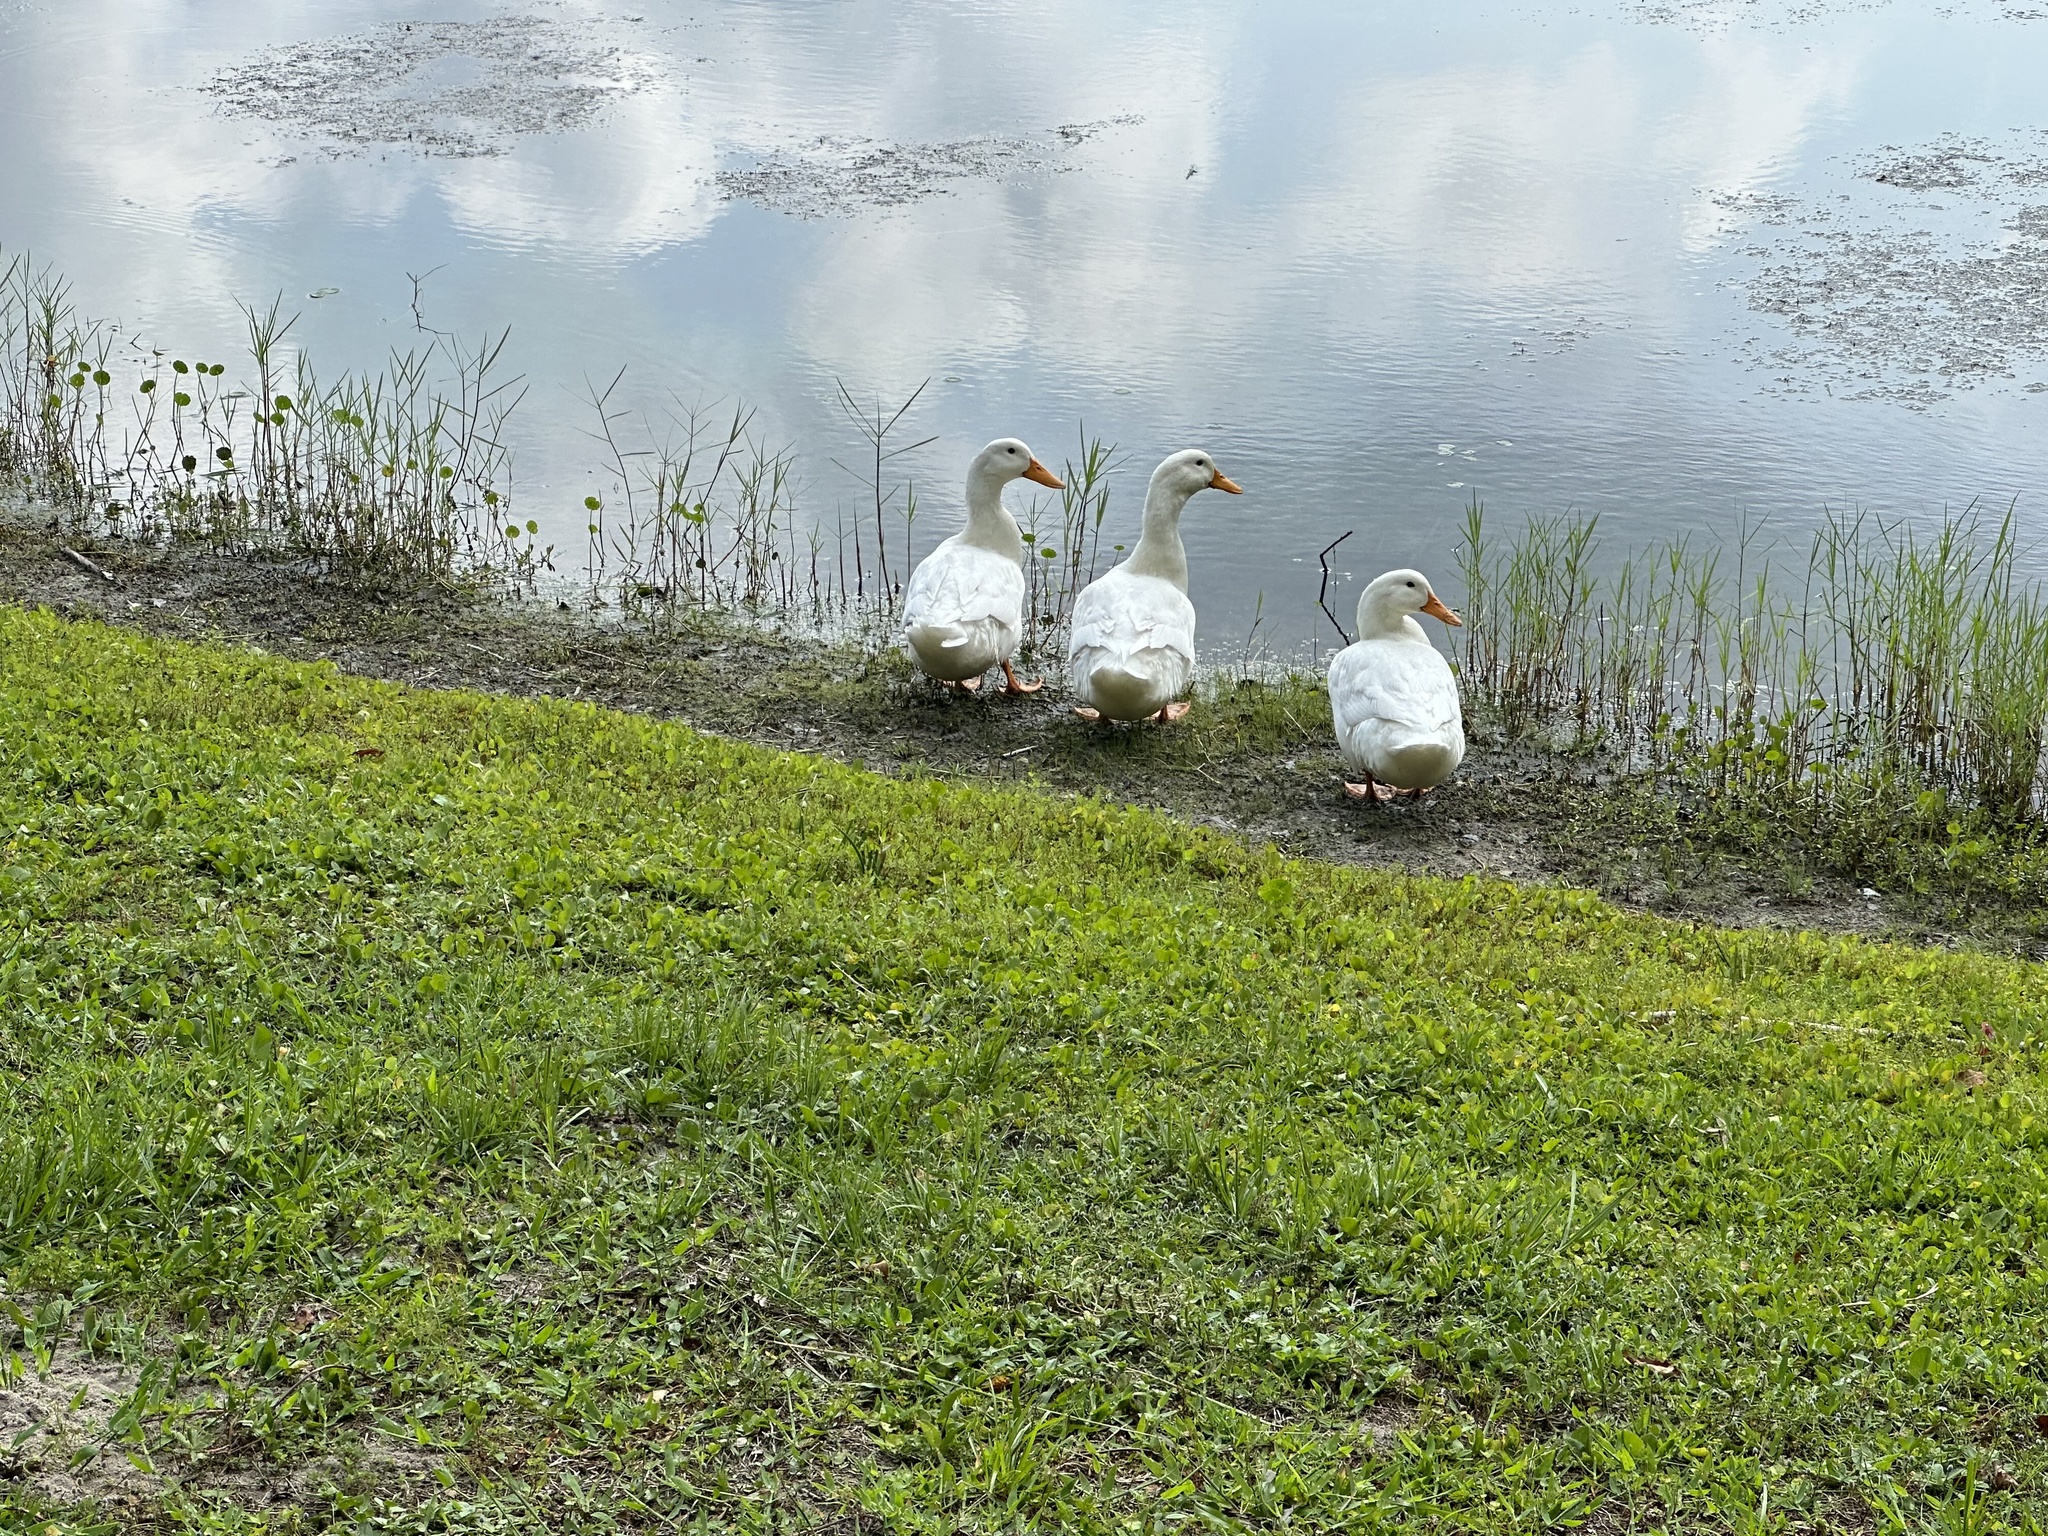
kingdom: Animalia
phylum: Chordata
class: Aves
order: Anseriformes
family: Anatidae
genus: Anas
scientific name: Anas platyrhynchos
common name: Mallard
